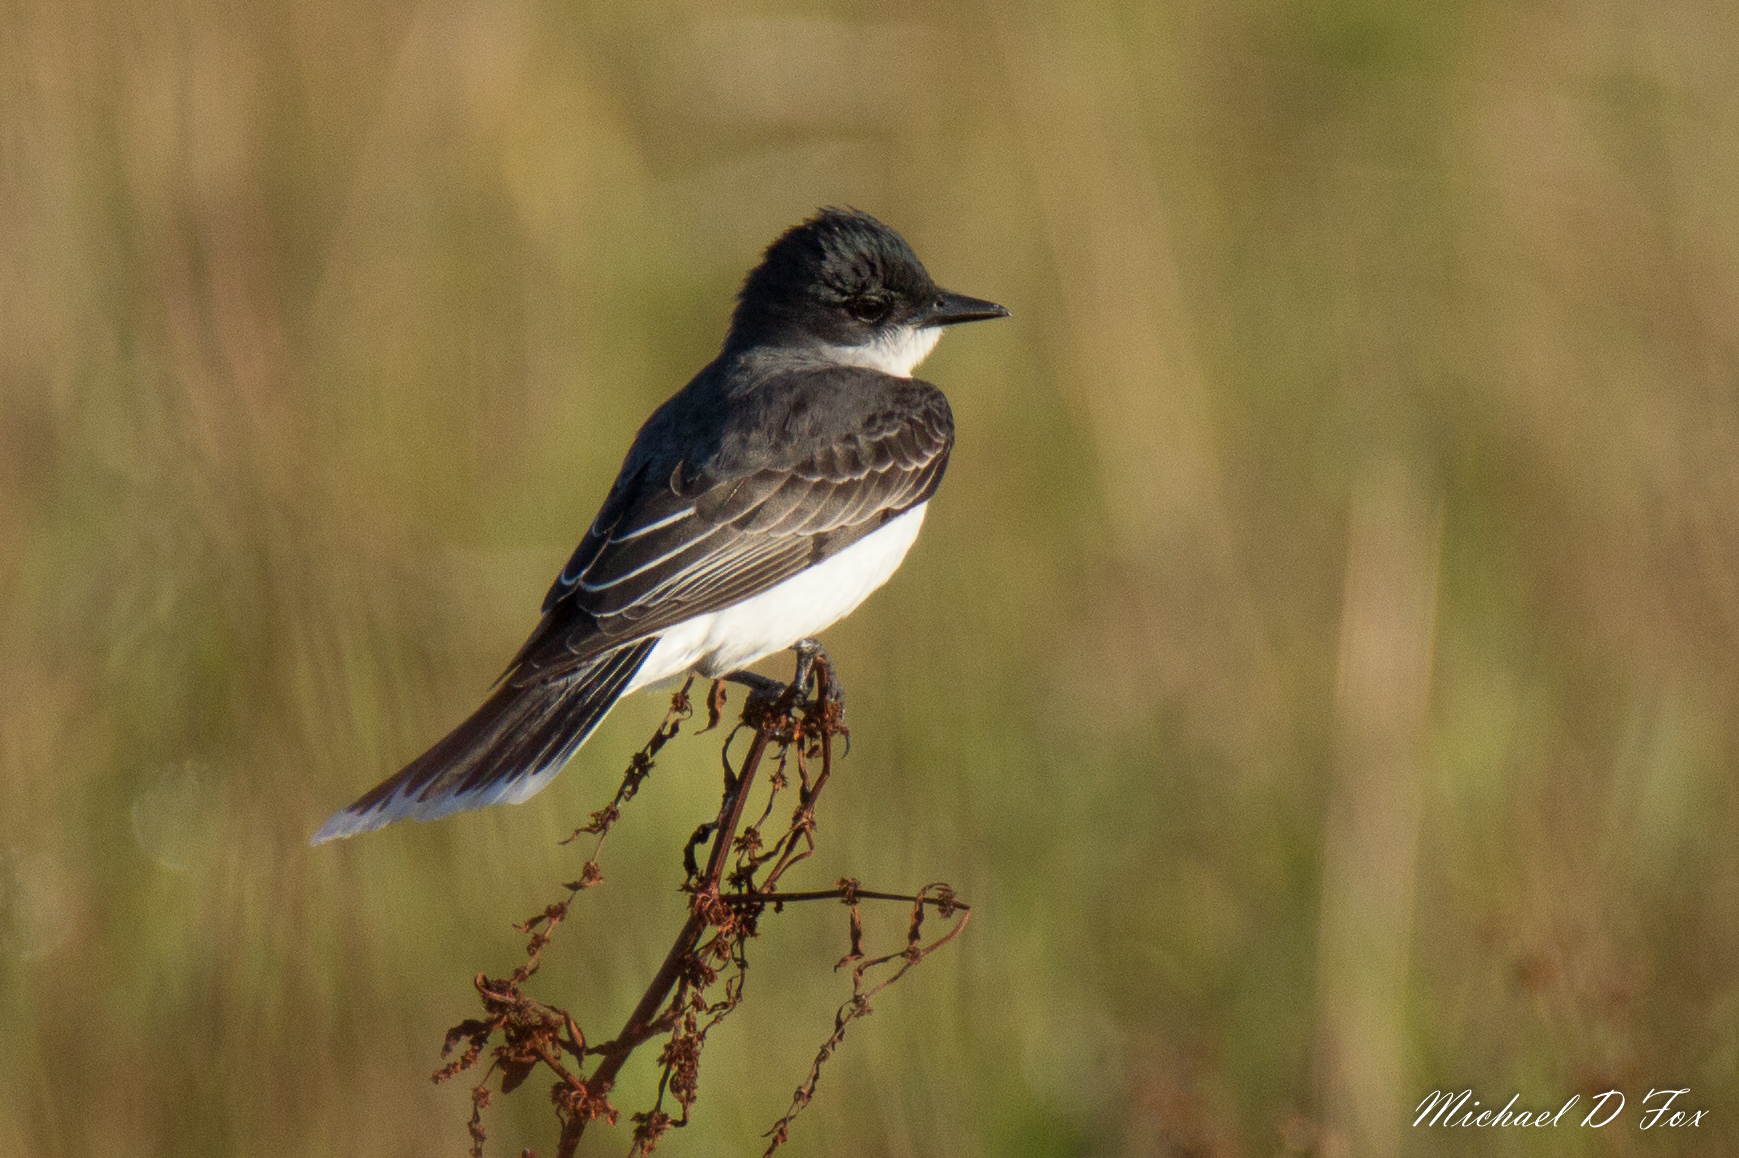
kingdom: Animalia
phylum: Chordata
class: Aves
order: Passeriformes
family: Tyrannidae
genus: Tyrannus
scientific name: Tyrannus tyrannus
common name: Eastern kingbird
